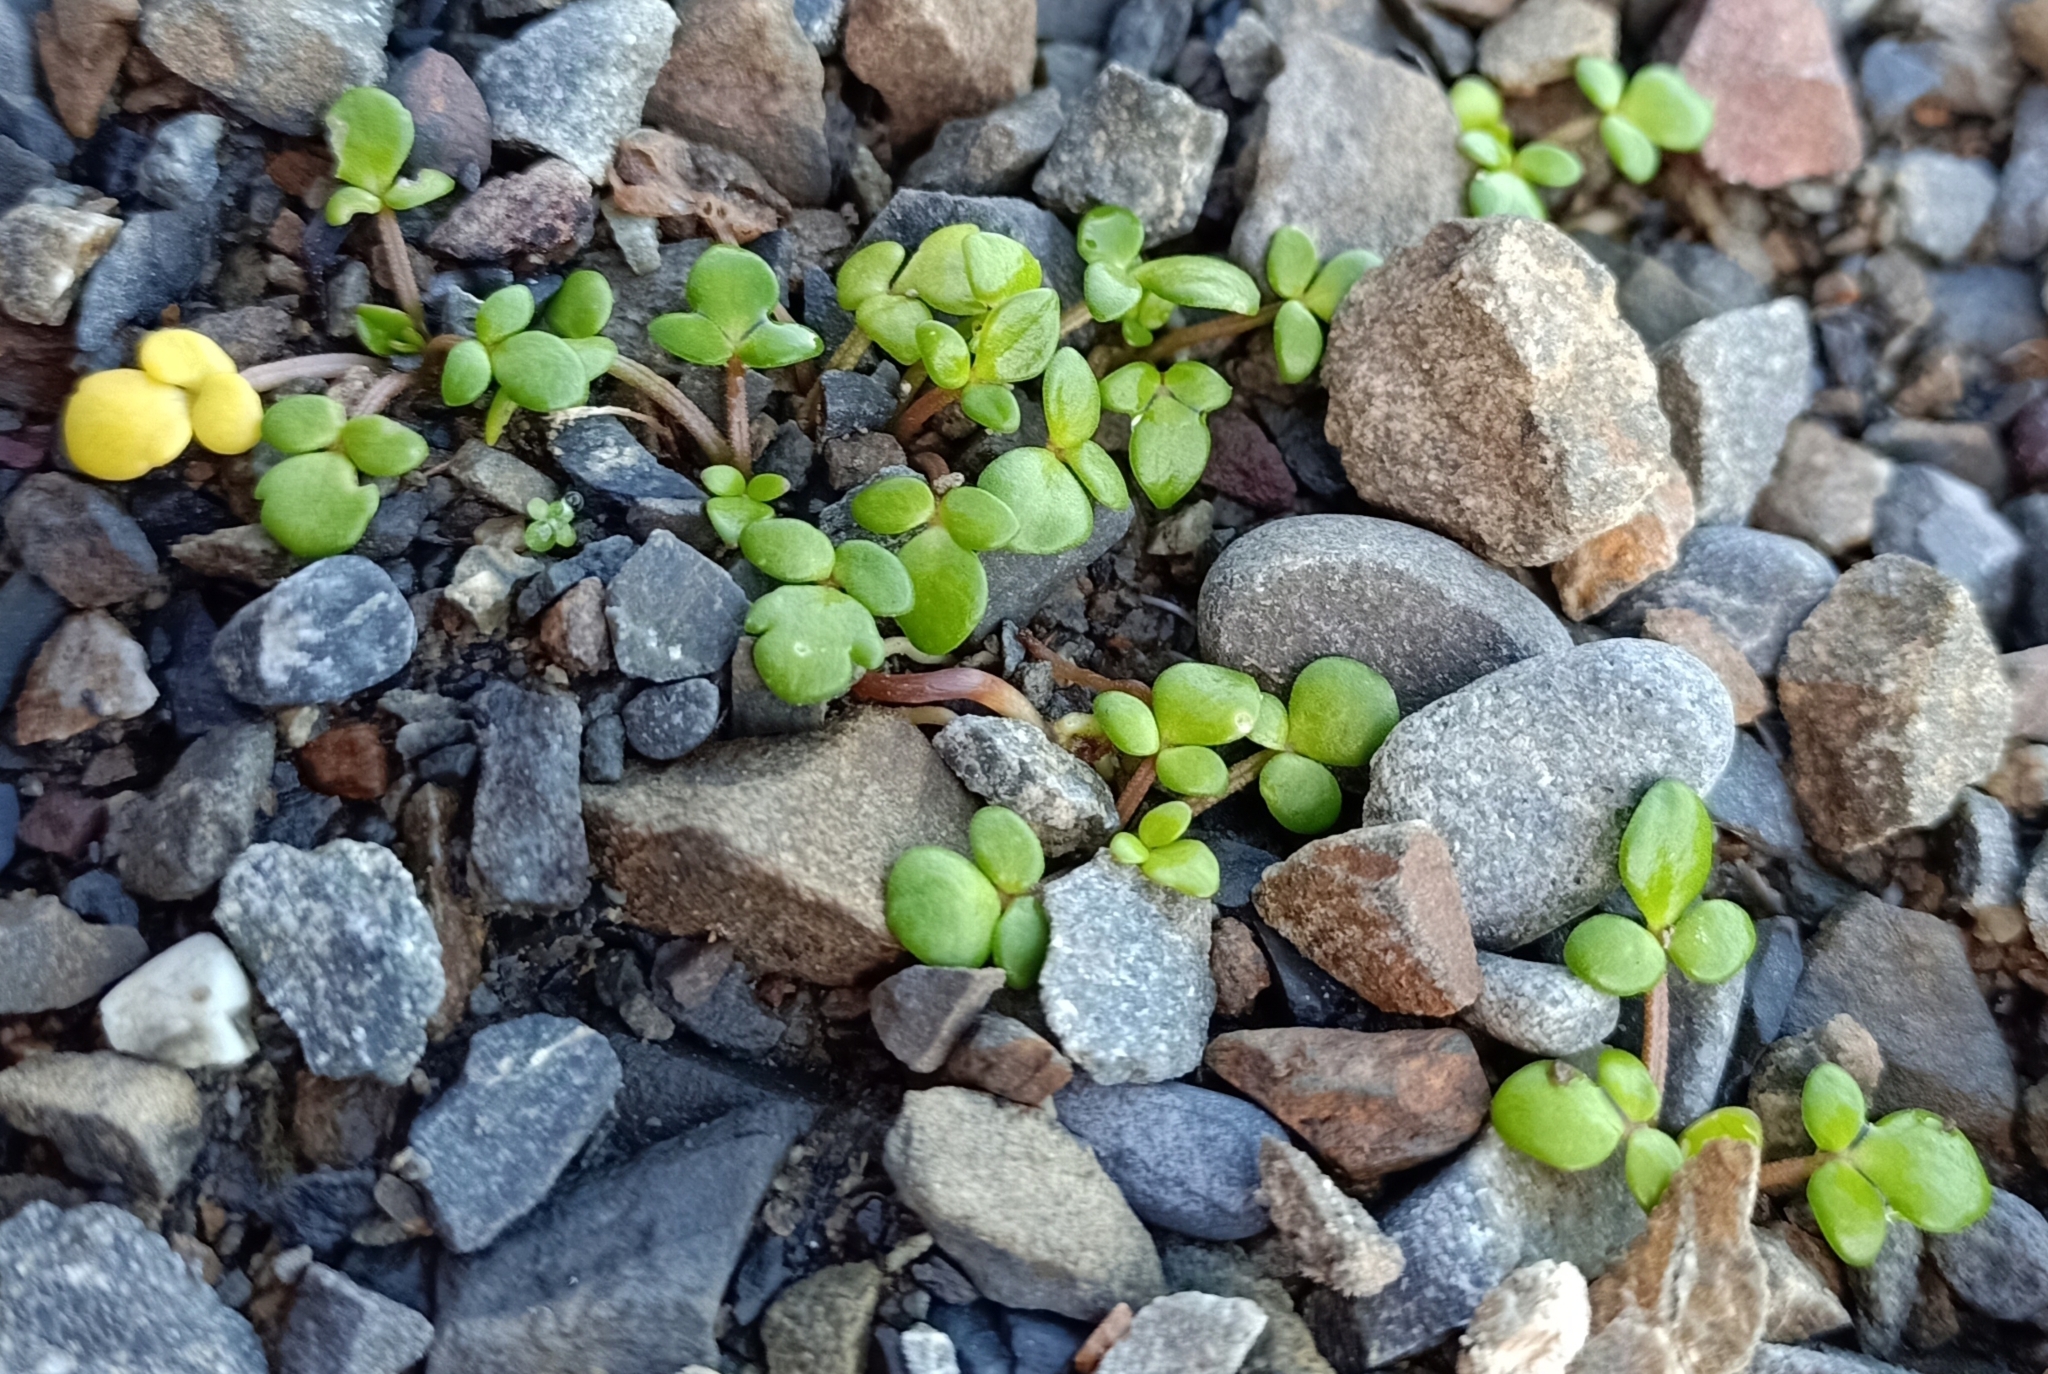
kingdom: Plantae
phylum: Tracheophyta
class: Magnoliopsida
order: Ranunculales
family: Ranunculaceae
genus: Ranunculus
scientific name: Ranunculus acaulis
